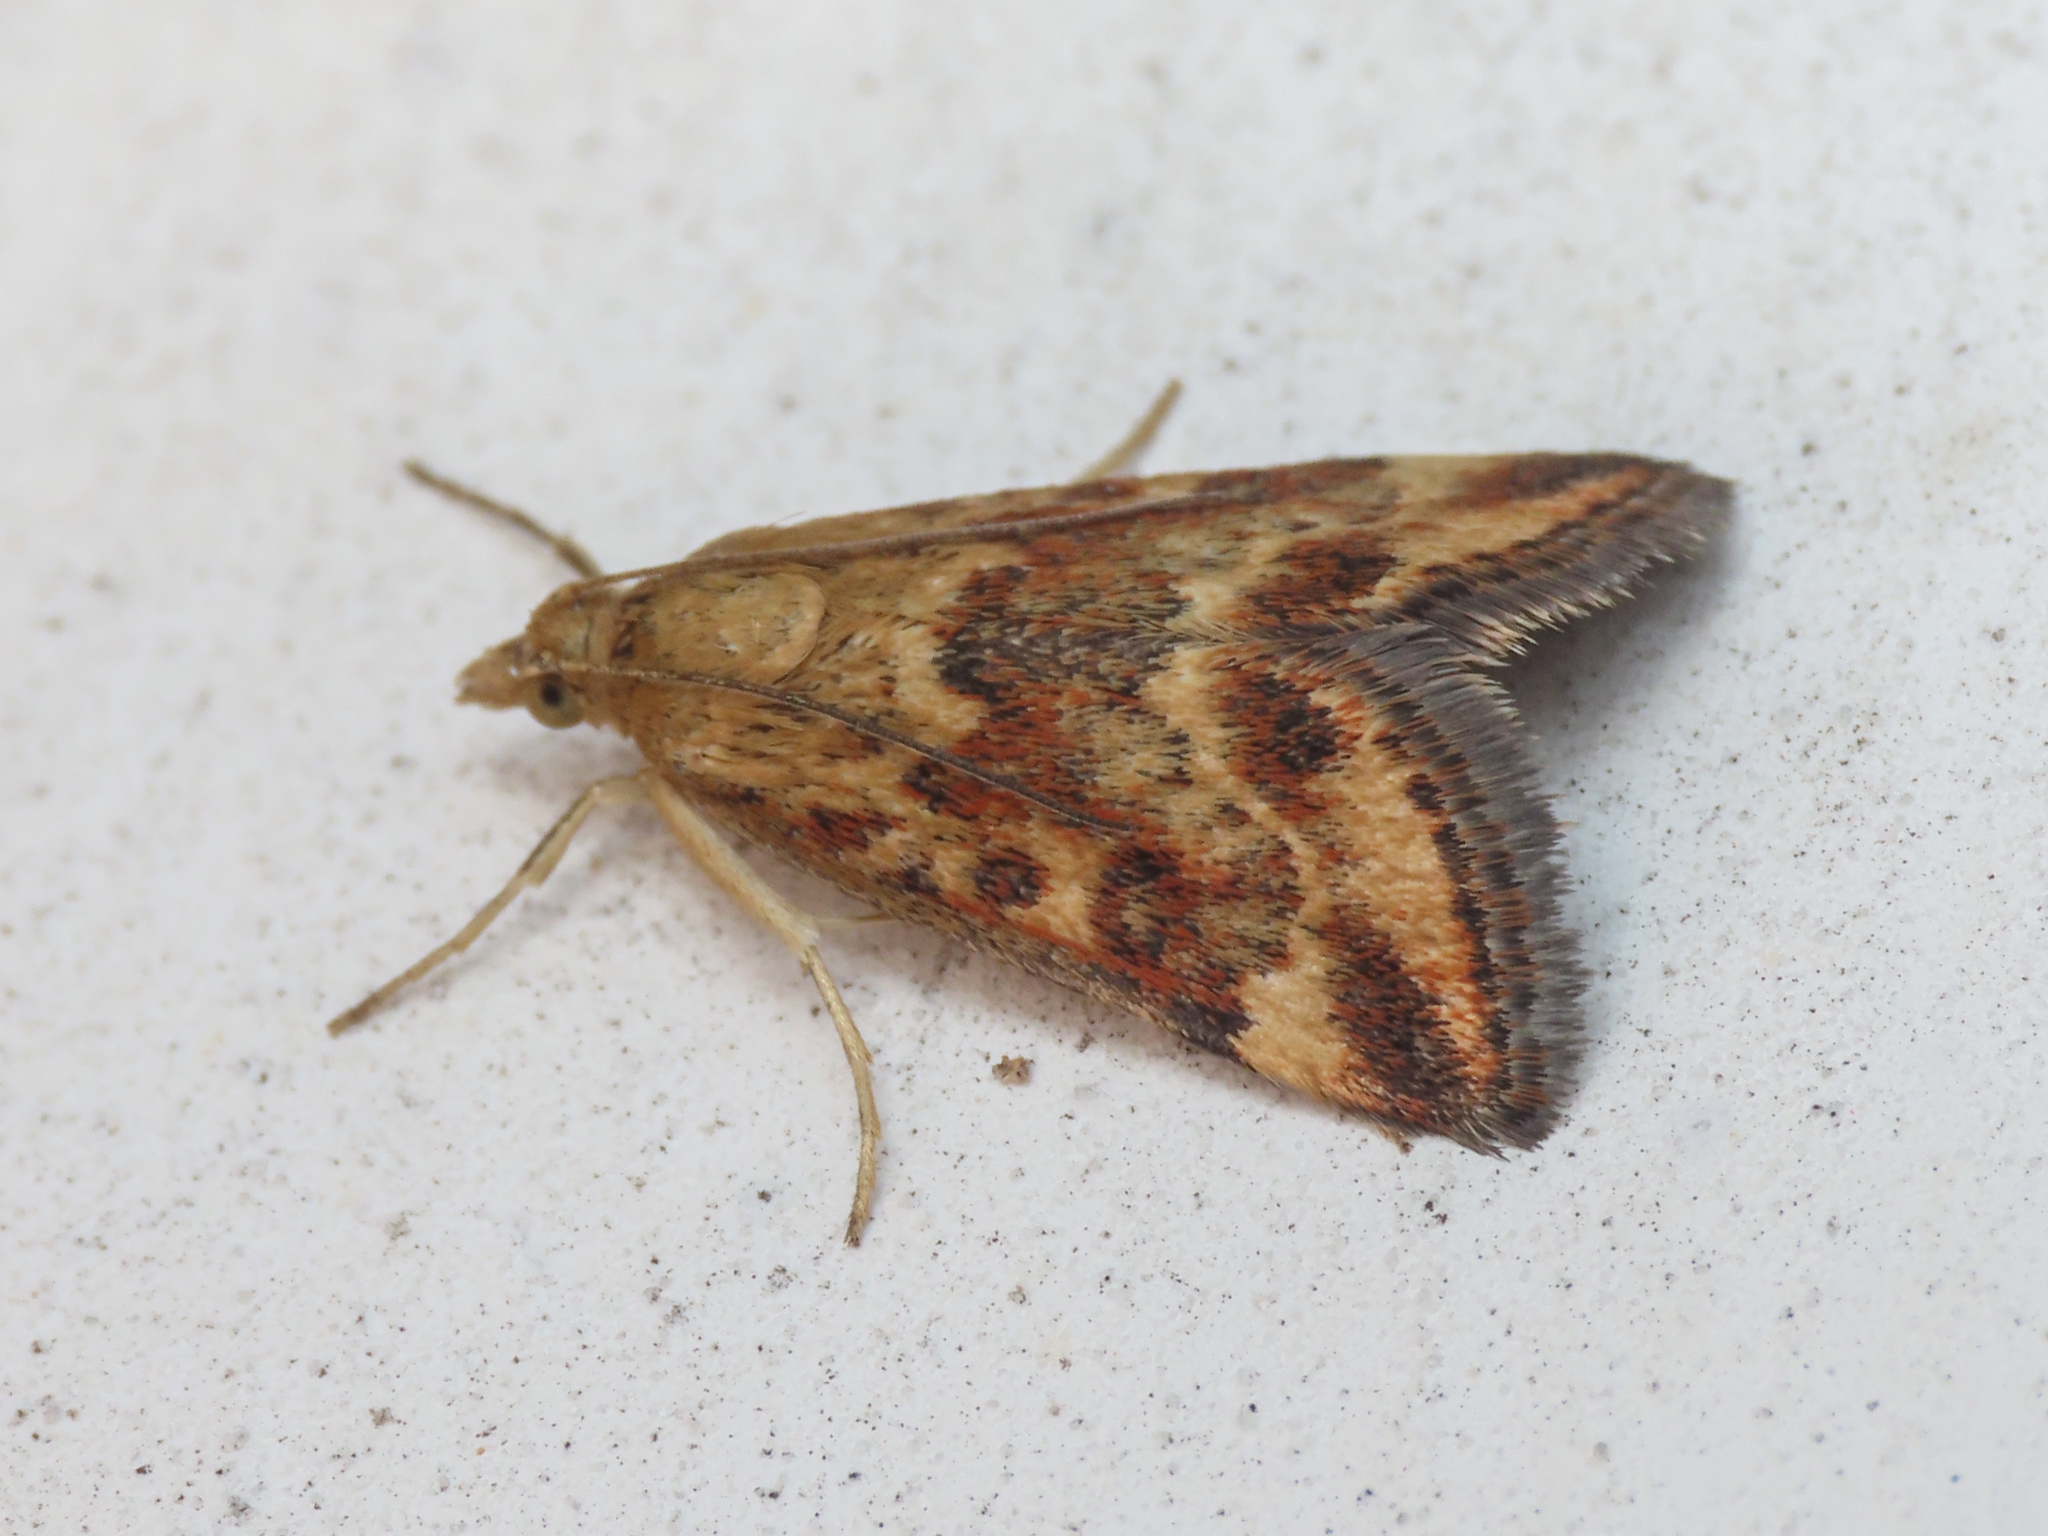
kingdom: Animalia
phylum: Arthropoda
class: Insecta
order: Lepidoptera
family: Crambidae
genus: Pyrausta
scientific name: Pyrausta despicata
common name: Straw-barred pearl
